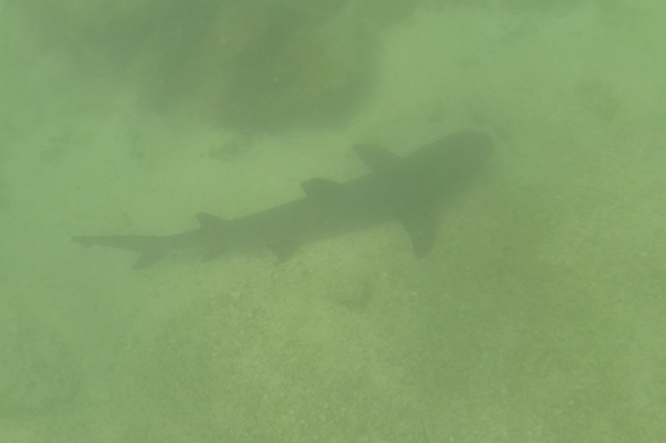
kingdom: Animalia
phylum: Chordata
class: Elasmobranchii
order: Carcharhiniformes
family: Carcharhinidae
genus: Triaenodon
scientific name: Triaenodon obesus
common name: Whitetip reef shark
